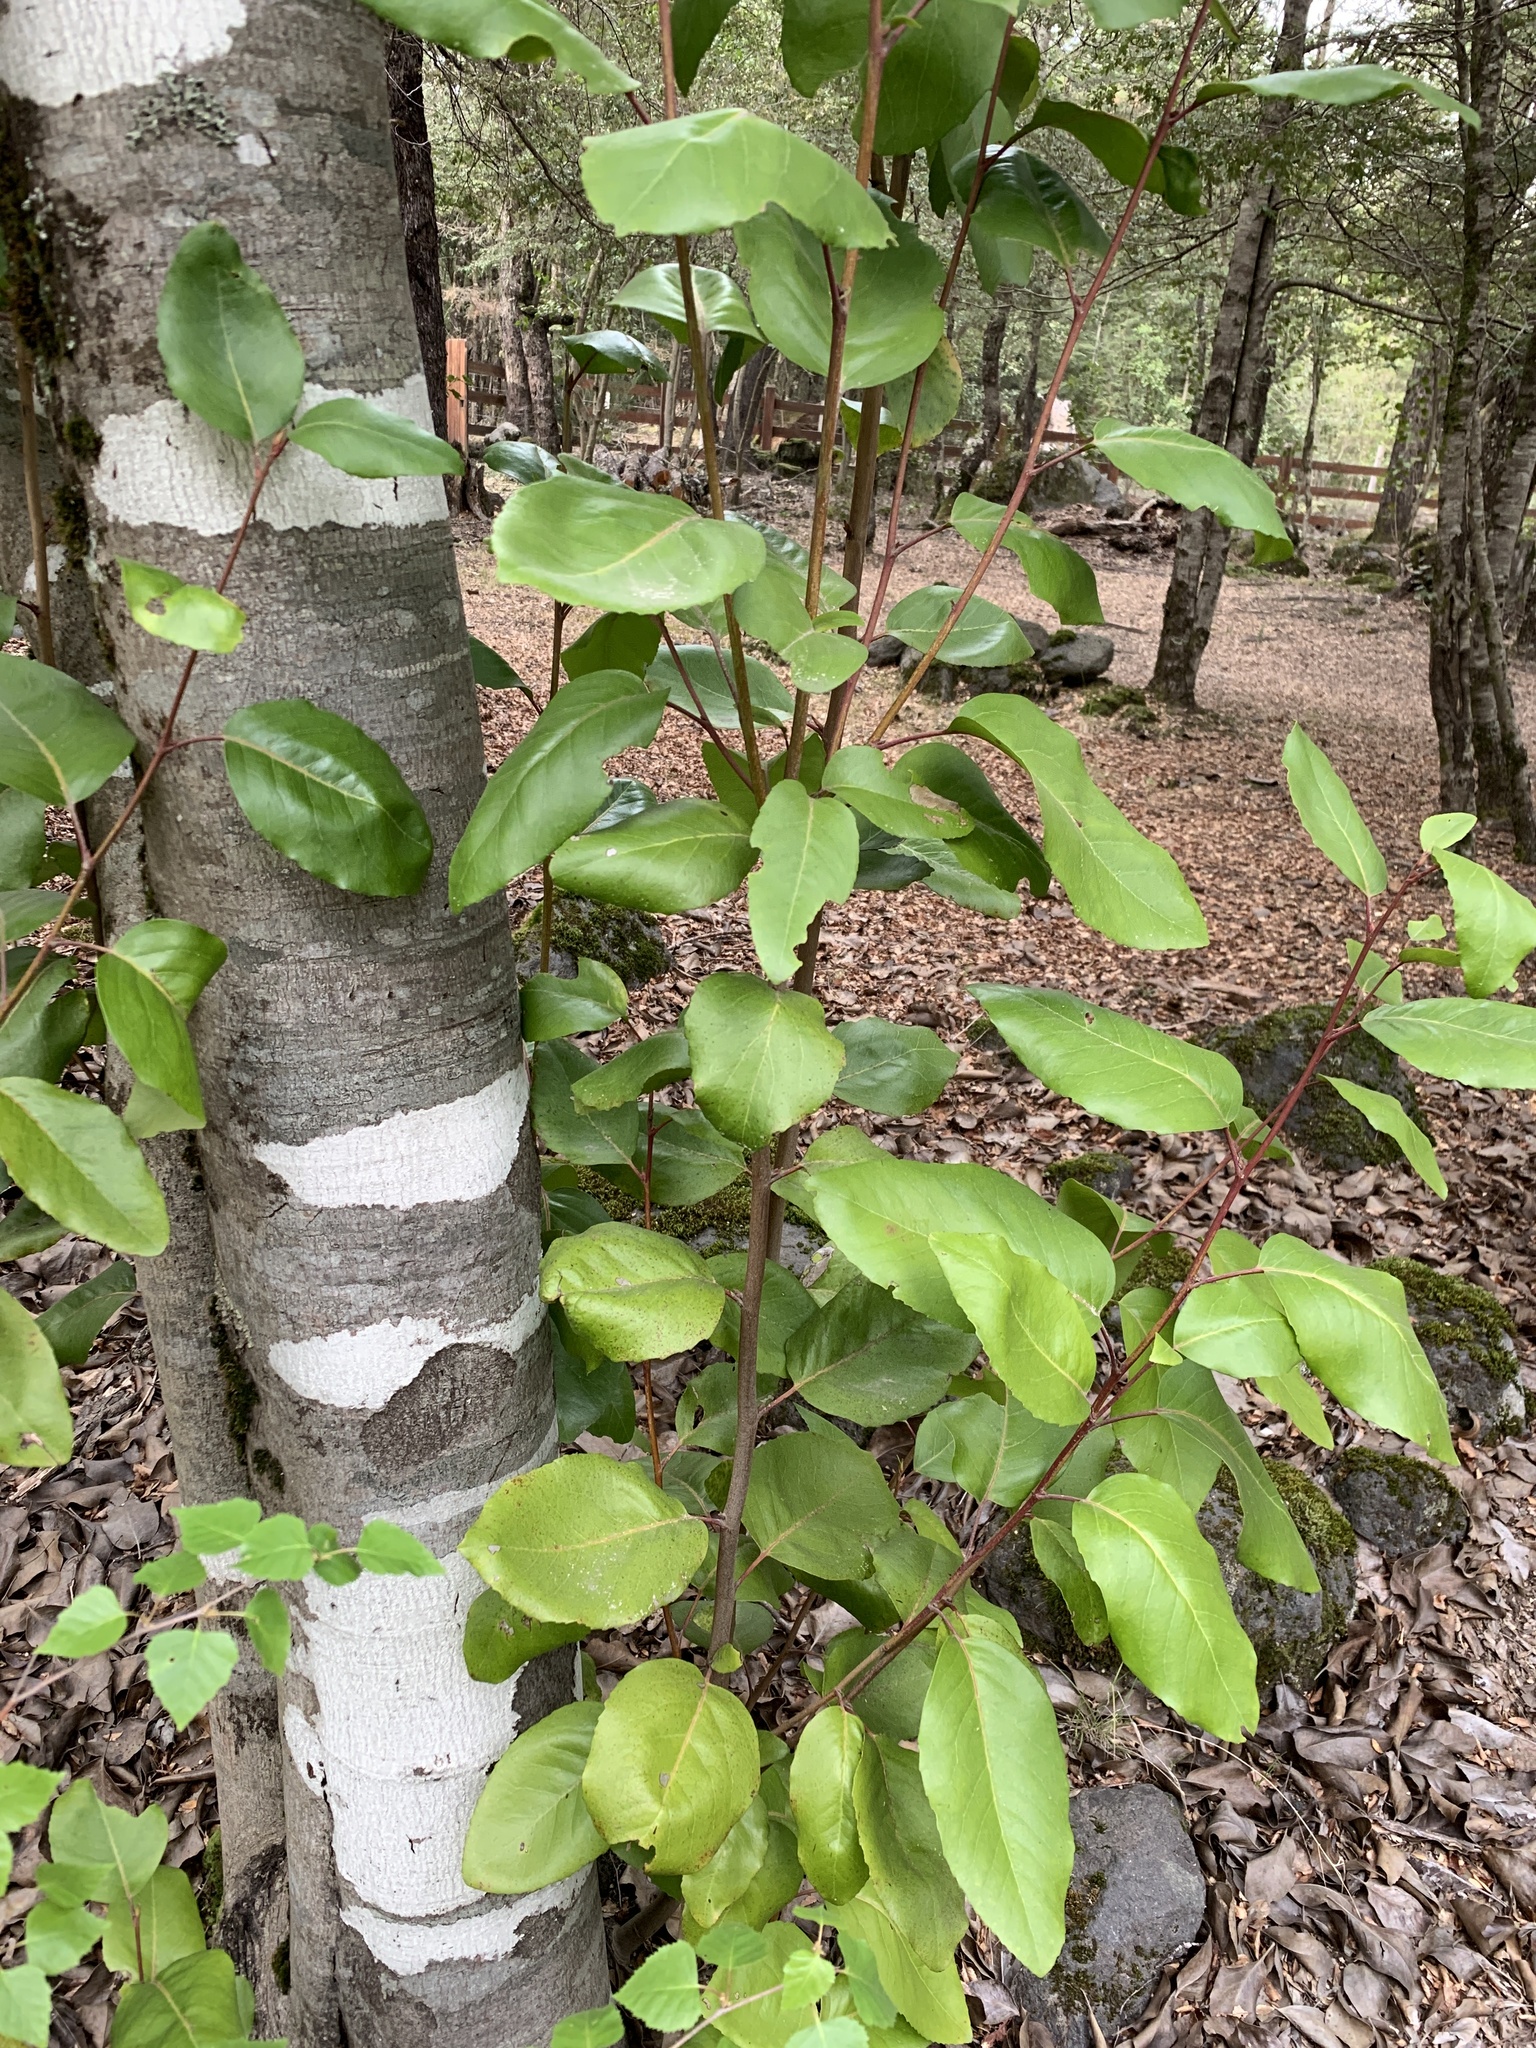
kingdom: Plantae
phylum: Tracheophyta
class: Magnoliopsida
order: Proteales
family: Proteaceae
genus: Lomatia
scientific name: Lomatia hirsuta
